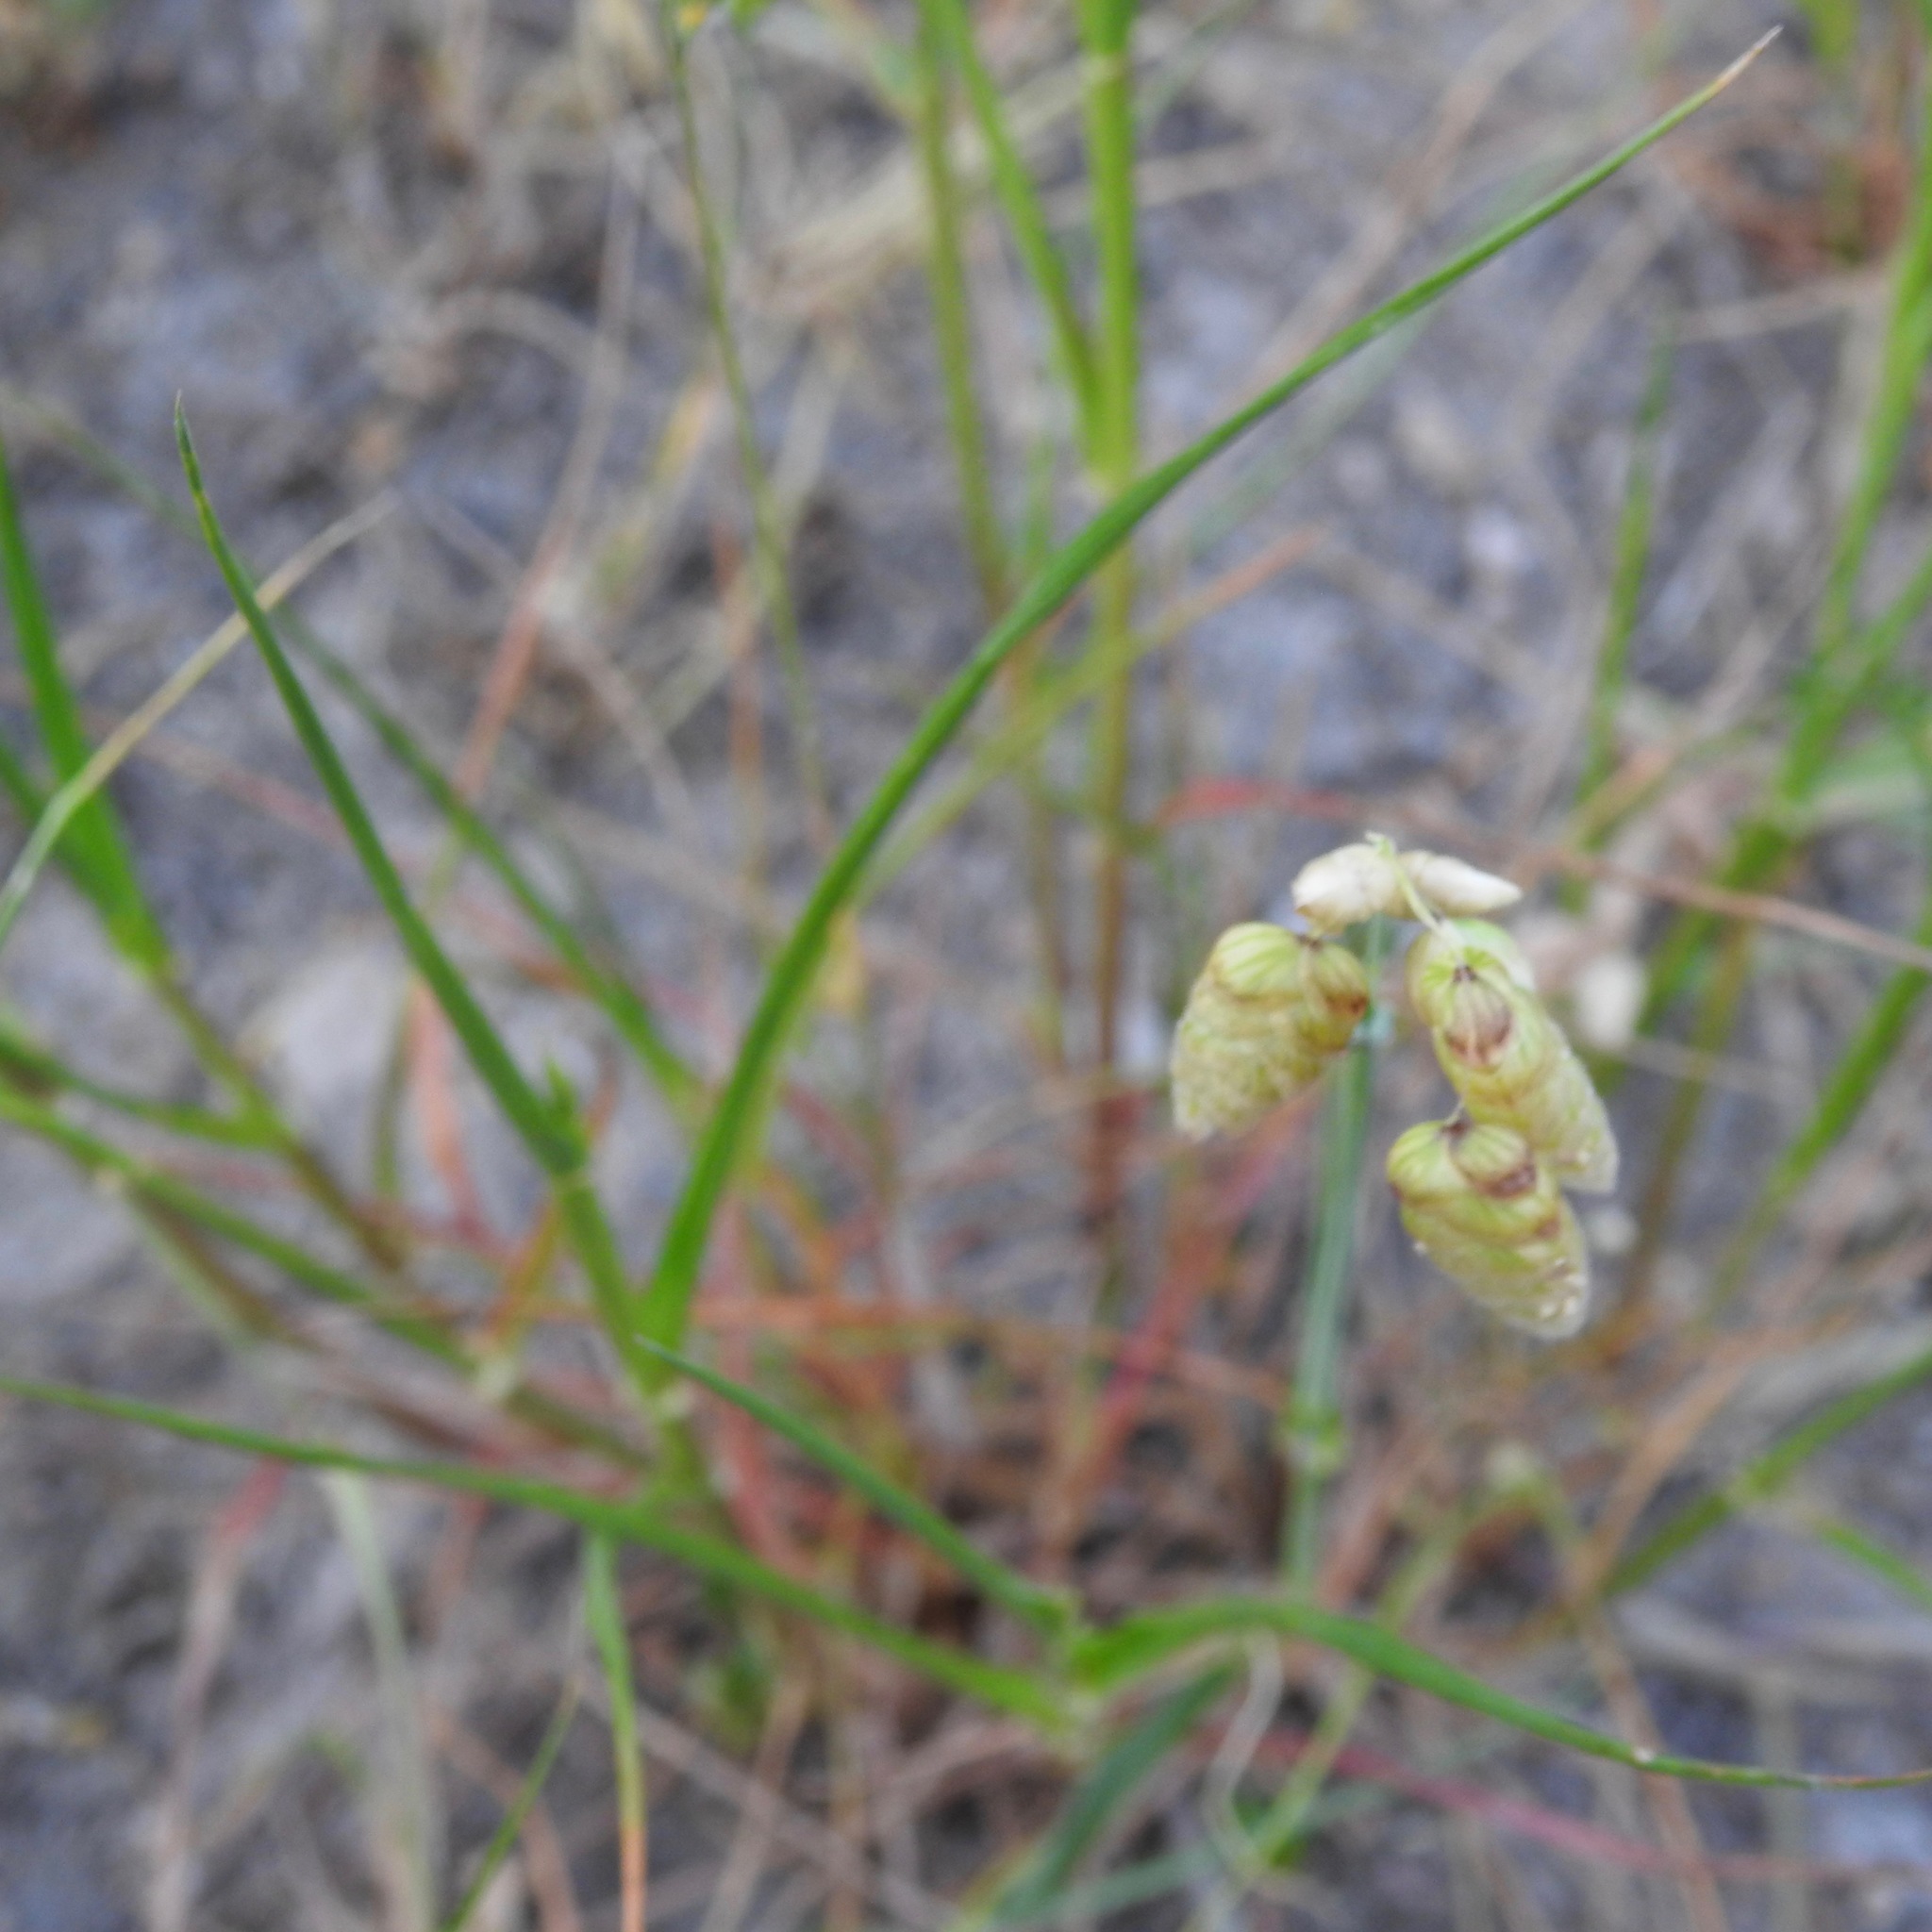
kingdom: Plantae
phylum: Tracheophyta
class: Liliopsida
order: Poales
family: Poaceae
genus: Briza
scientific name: Briza maxima
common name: Big quakinggrass
